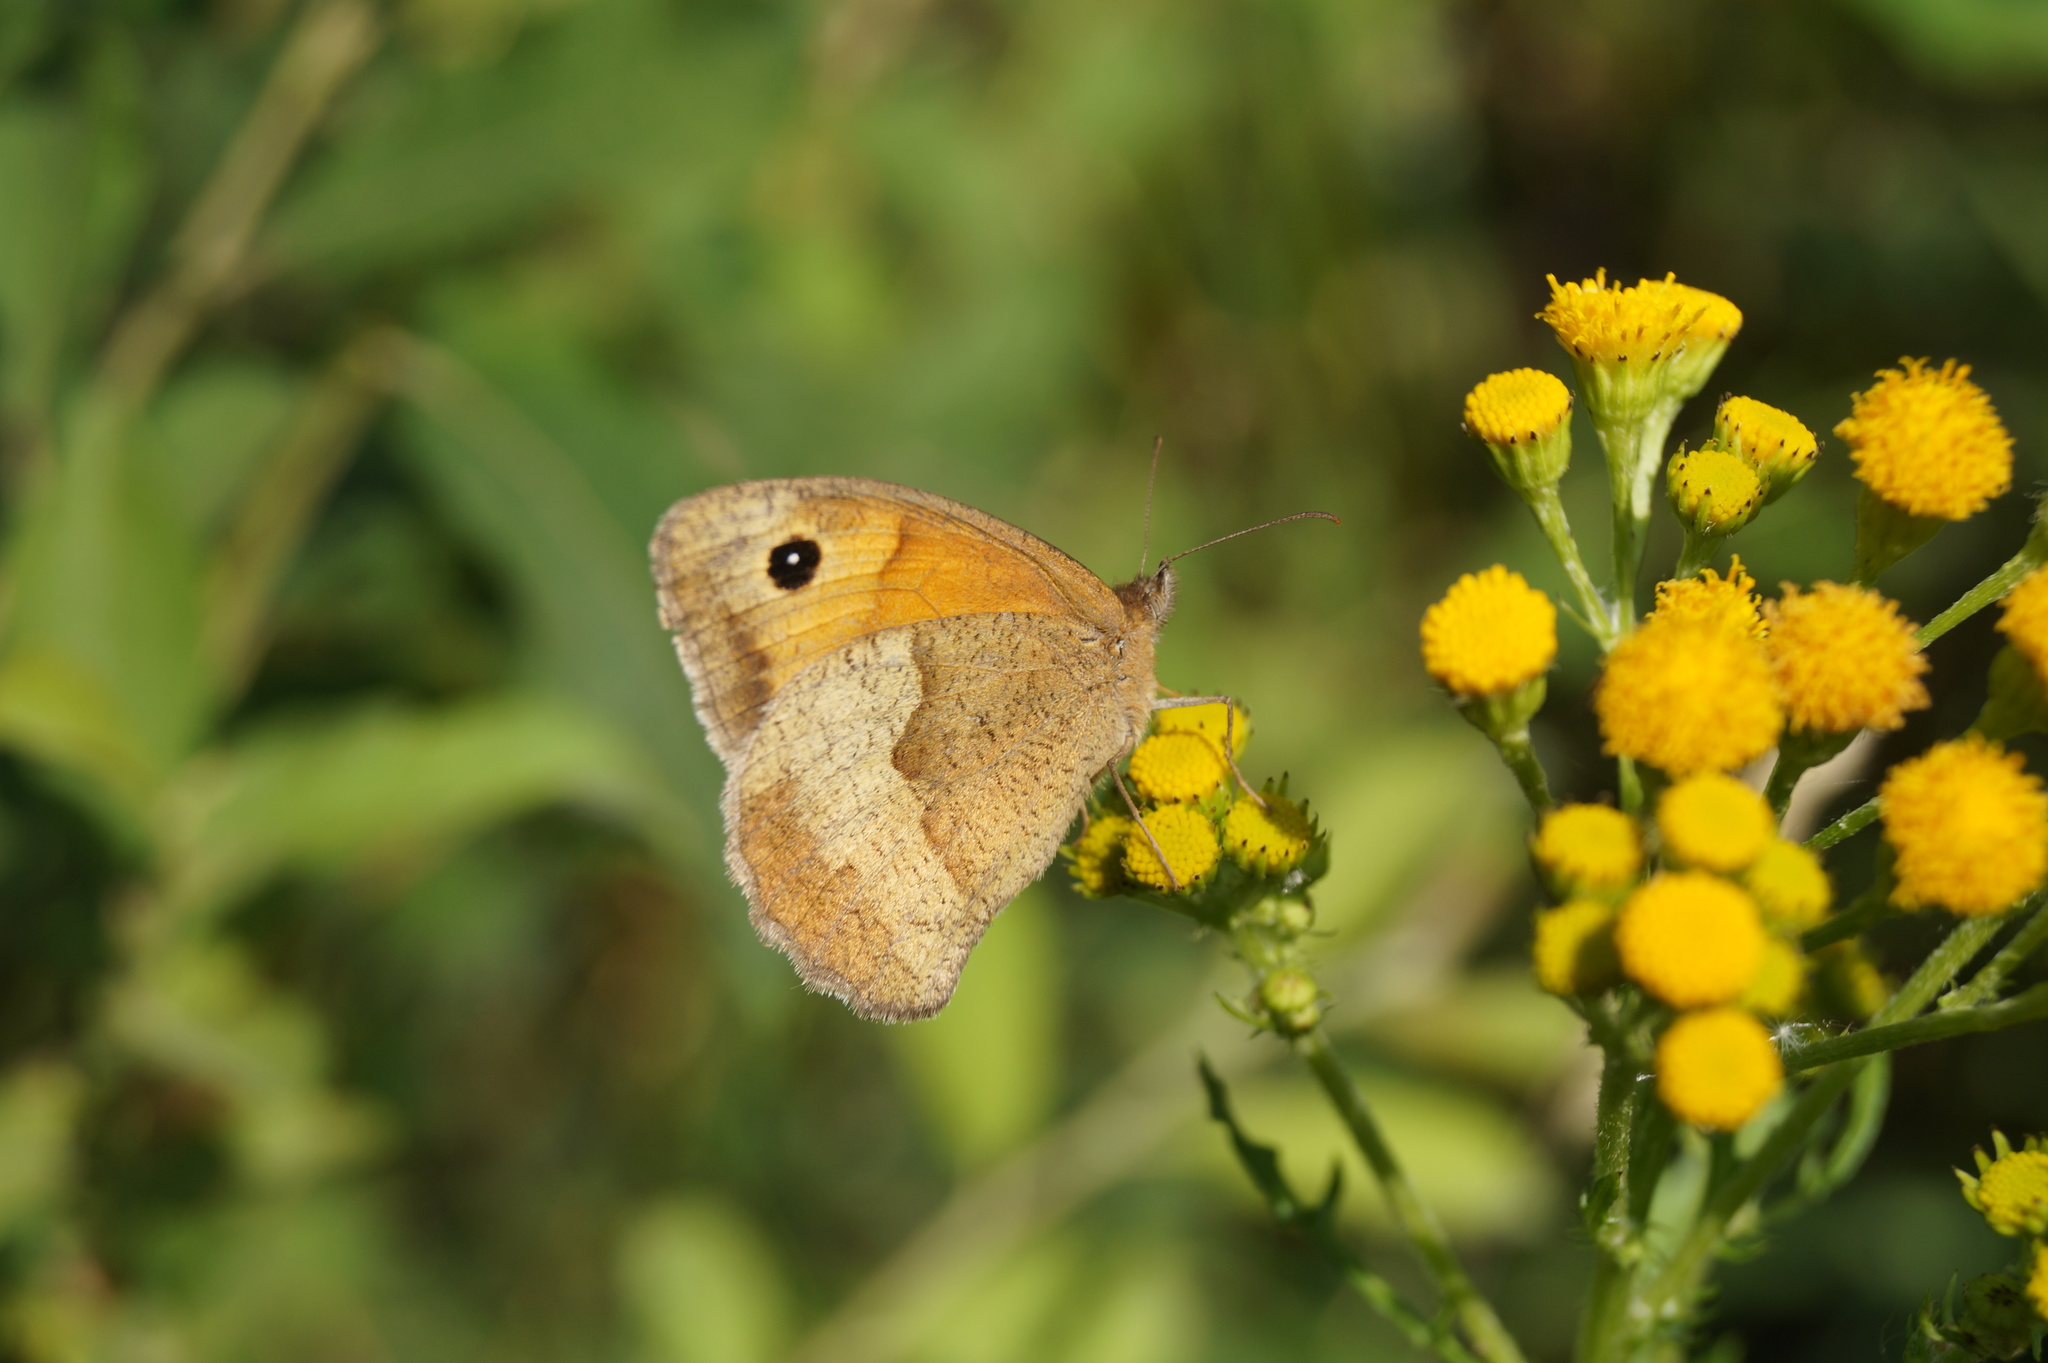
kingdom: Animalia
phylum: Arthropoda
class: Insecta
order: Lepidoptera
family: Nymphalidae
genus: Maniola
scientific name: Maniola jurtina
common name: Meadow brown
